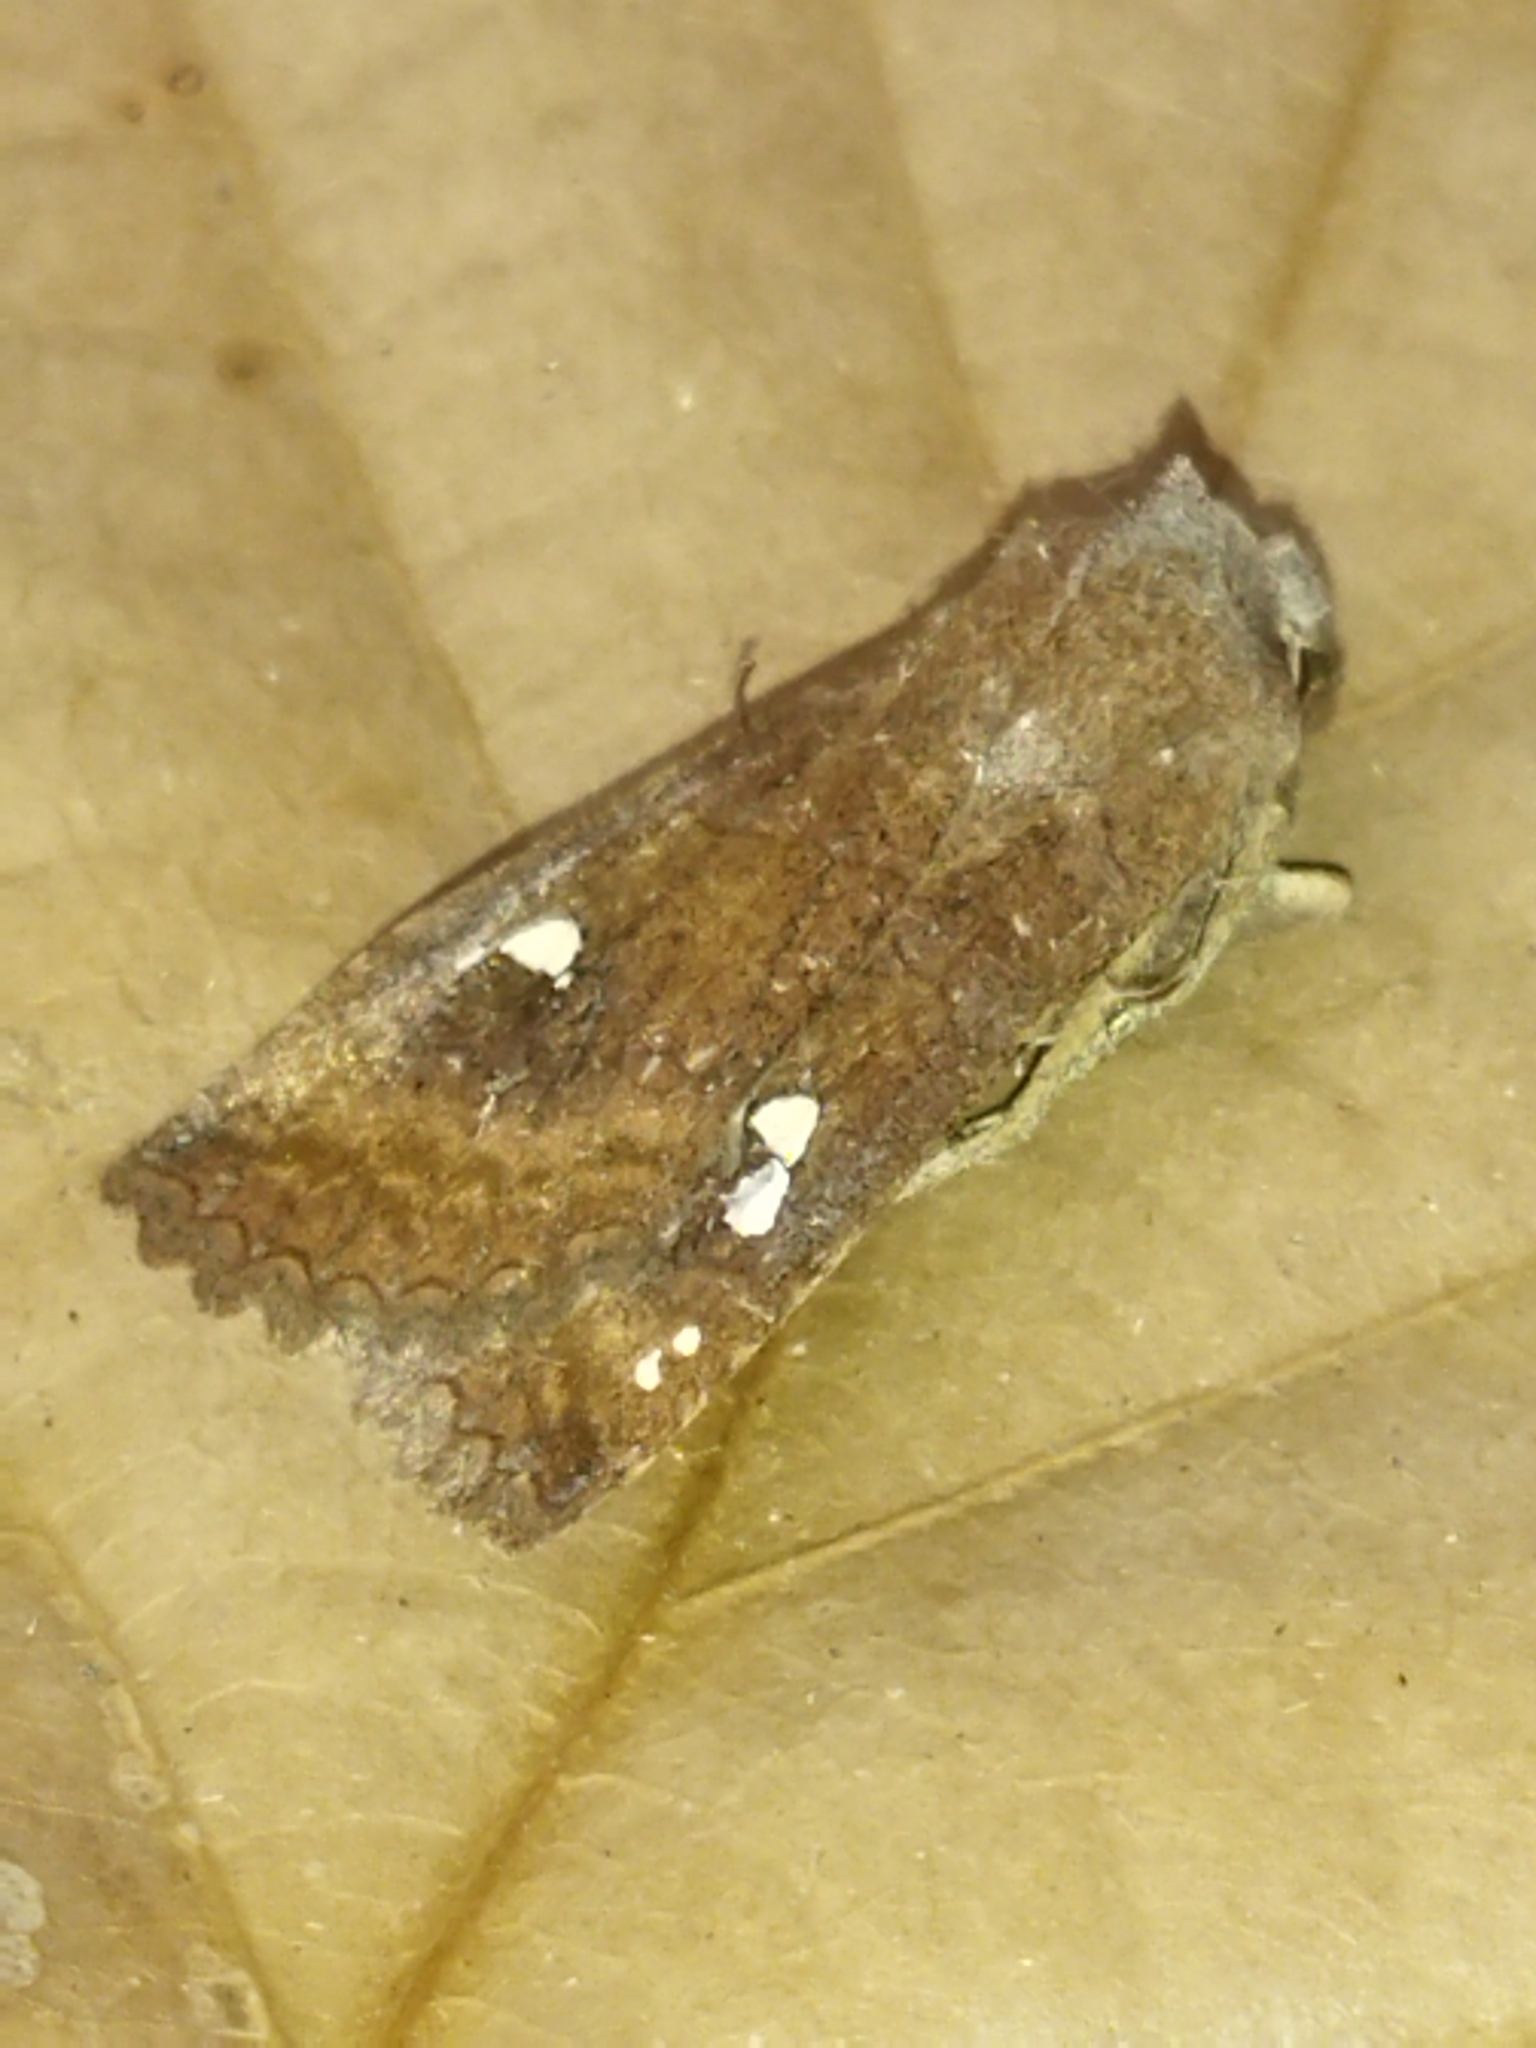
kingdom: Animalia
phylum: Arthropoda
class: Insecta
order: Lepidoptera
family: Noctuidae
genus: Eupsilia
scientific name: Eupsilia transversa
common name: Satellite
